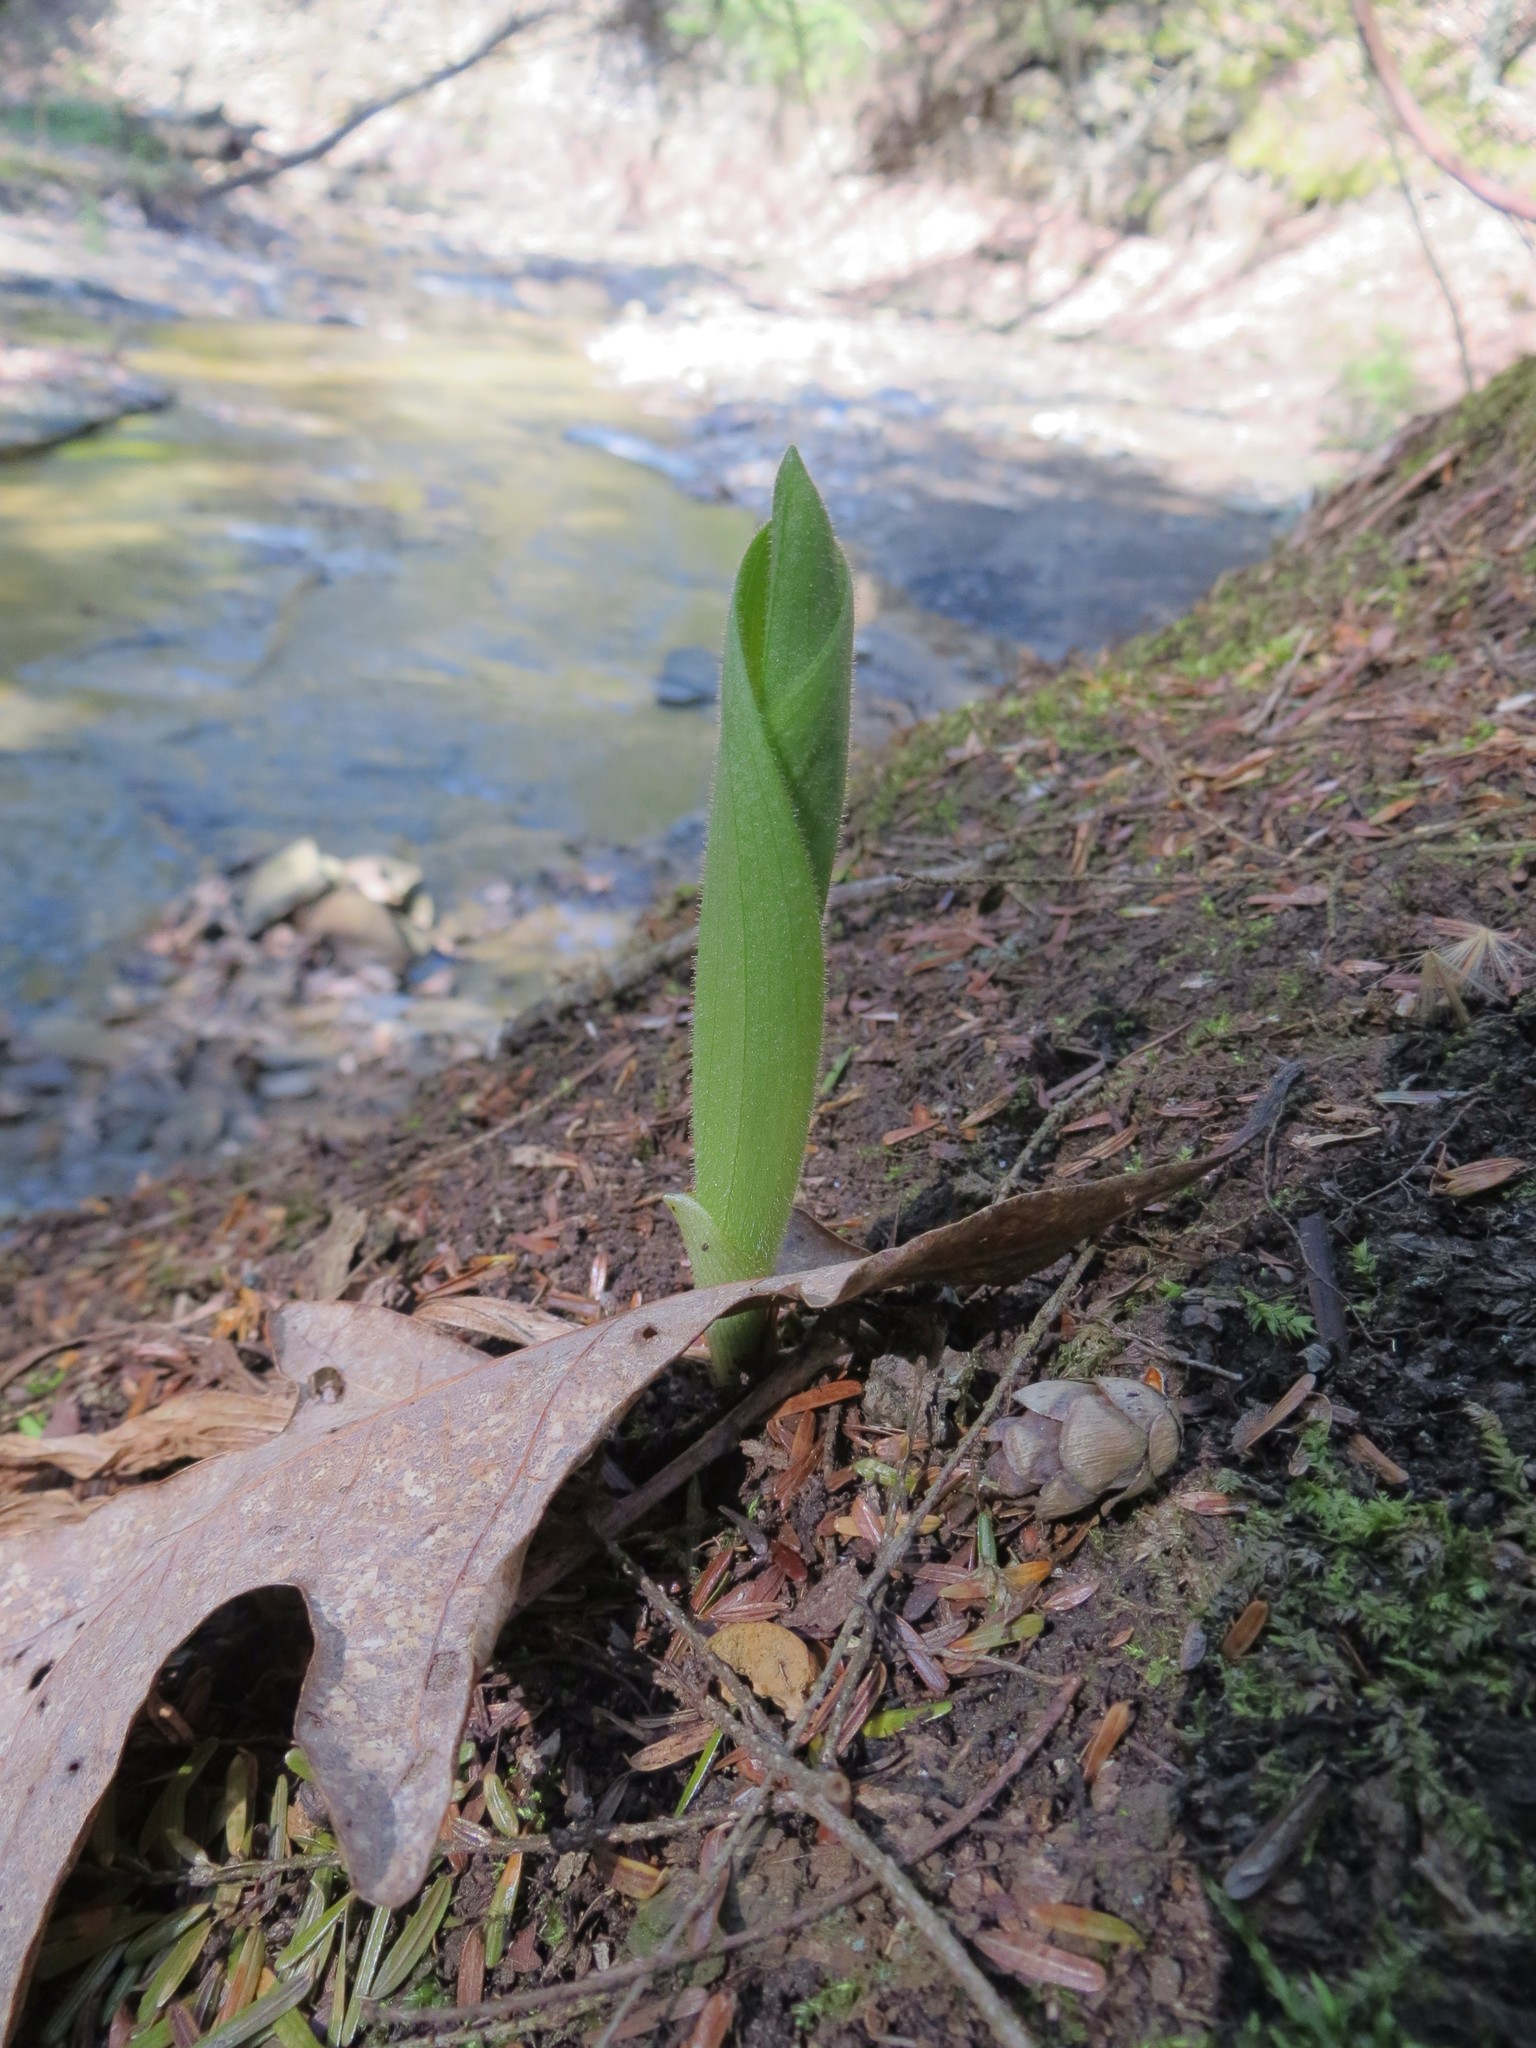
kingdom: Plantae
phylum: Tracheophyta
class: Liliopsida
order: Asparagales
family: Orchidaceae
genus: Cypripedium
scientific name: Cypripedium acaule
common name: Pink lady's-slipper
